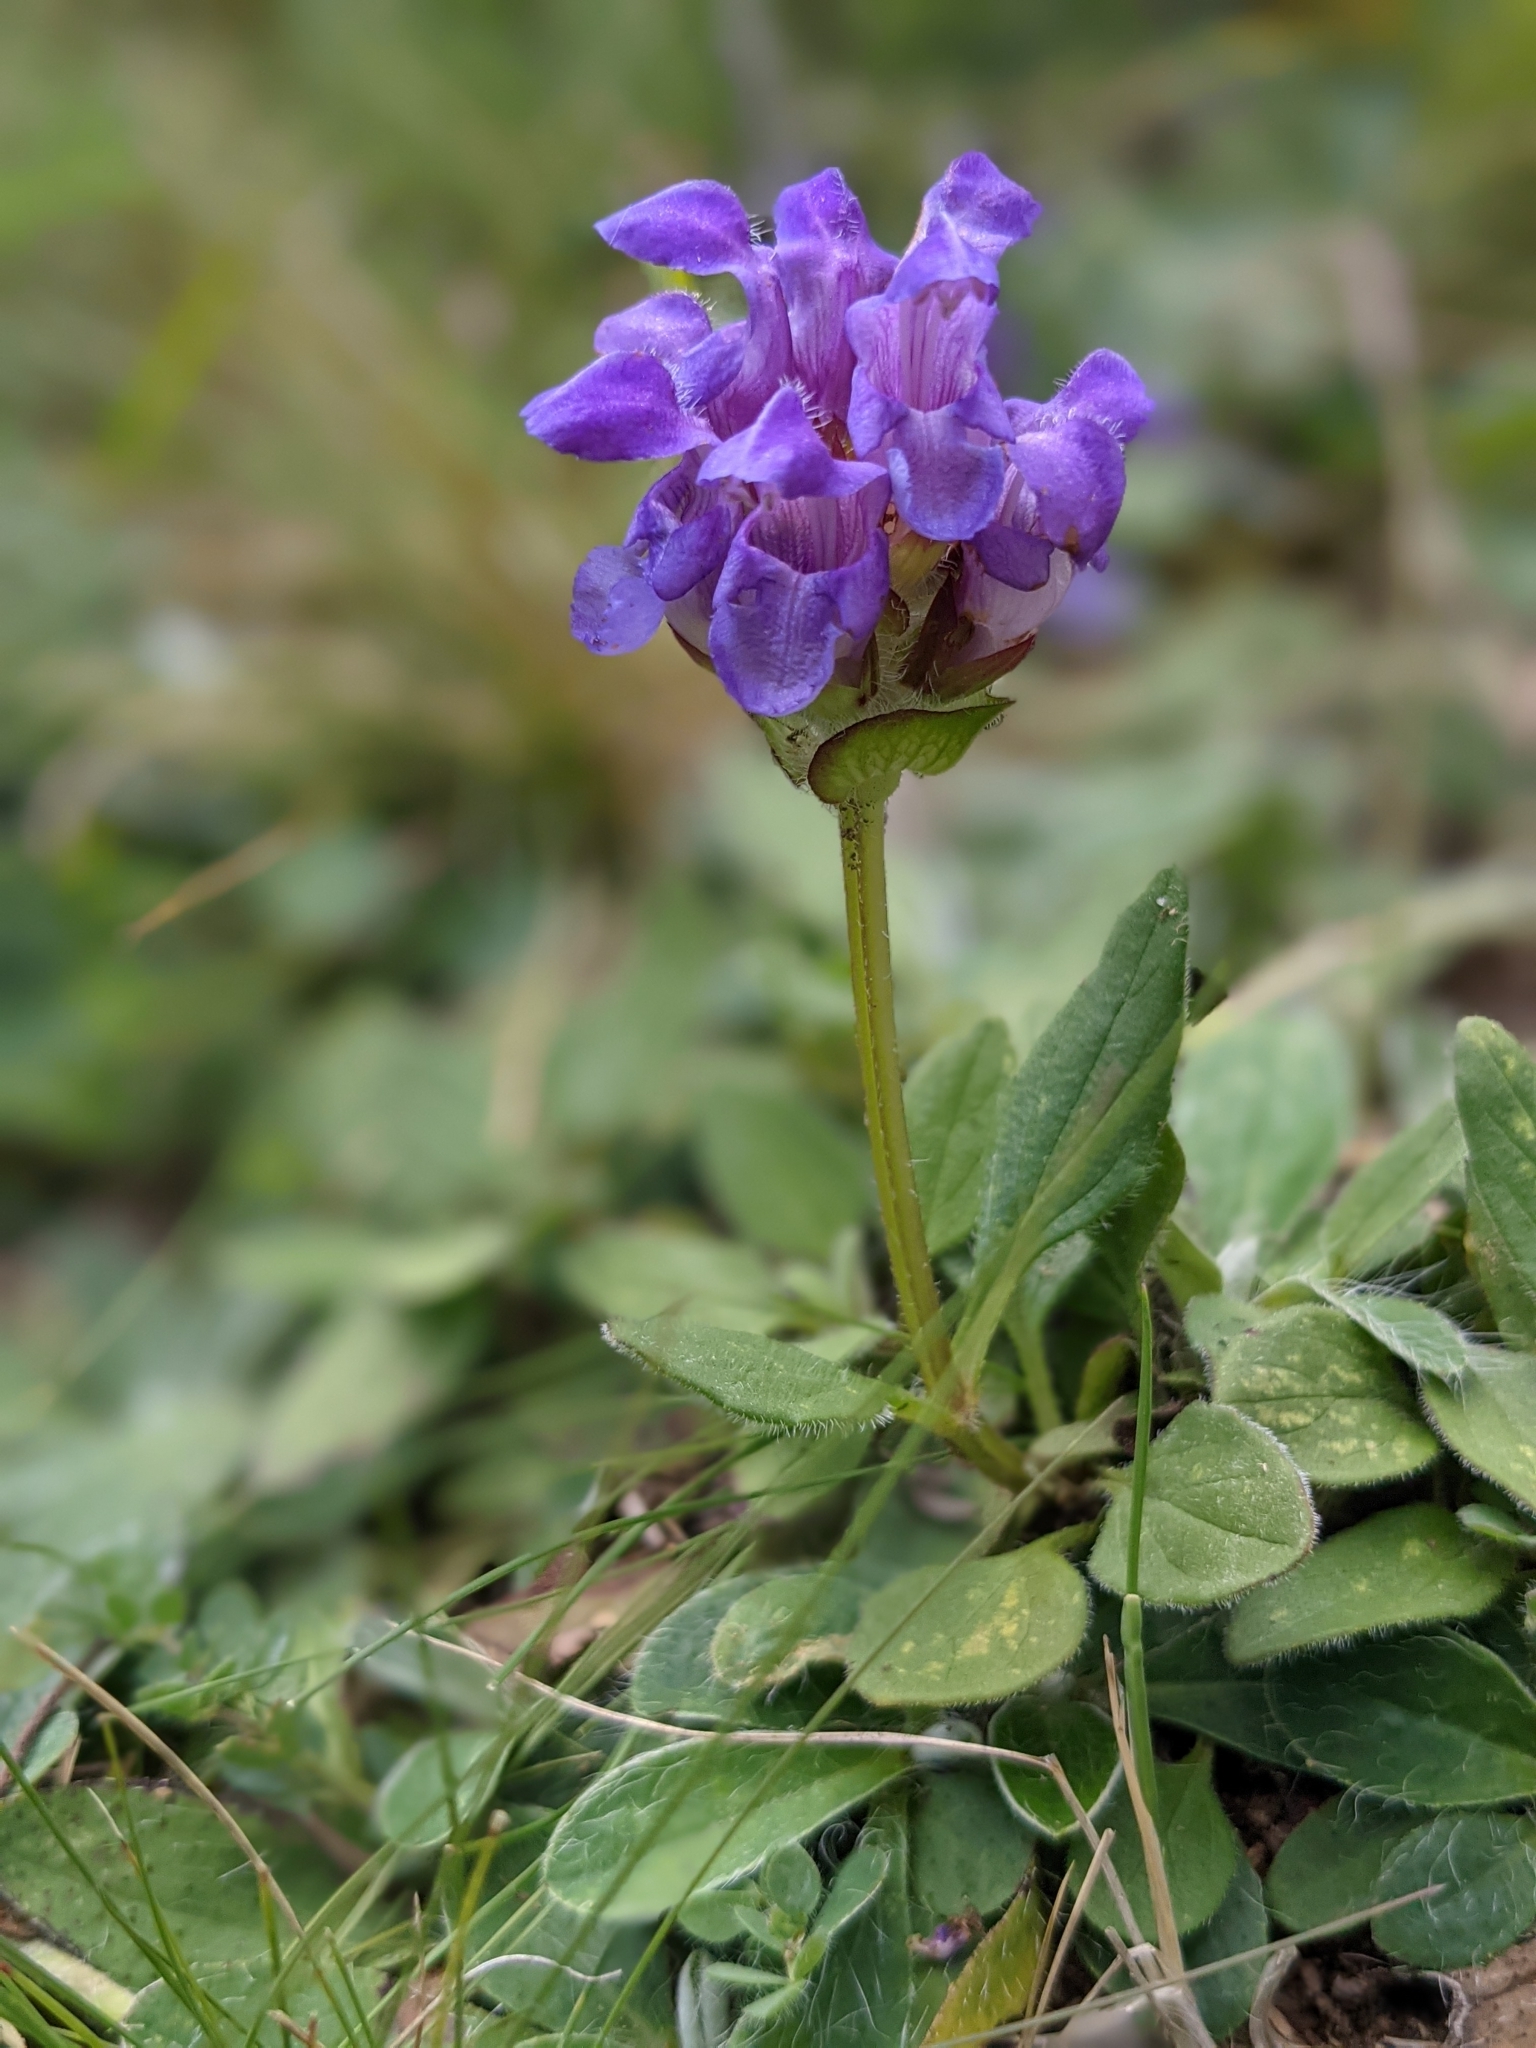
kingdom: Plantae
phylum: Tracheophyta
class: Magnoliopsida
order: Lamiales
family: Lamiaceae
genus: Prunella
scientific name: Prunella grandiflora
